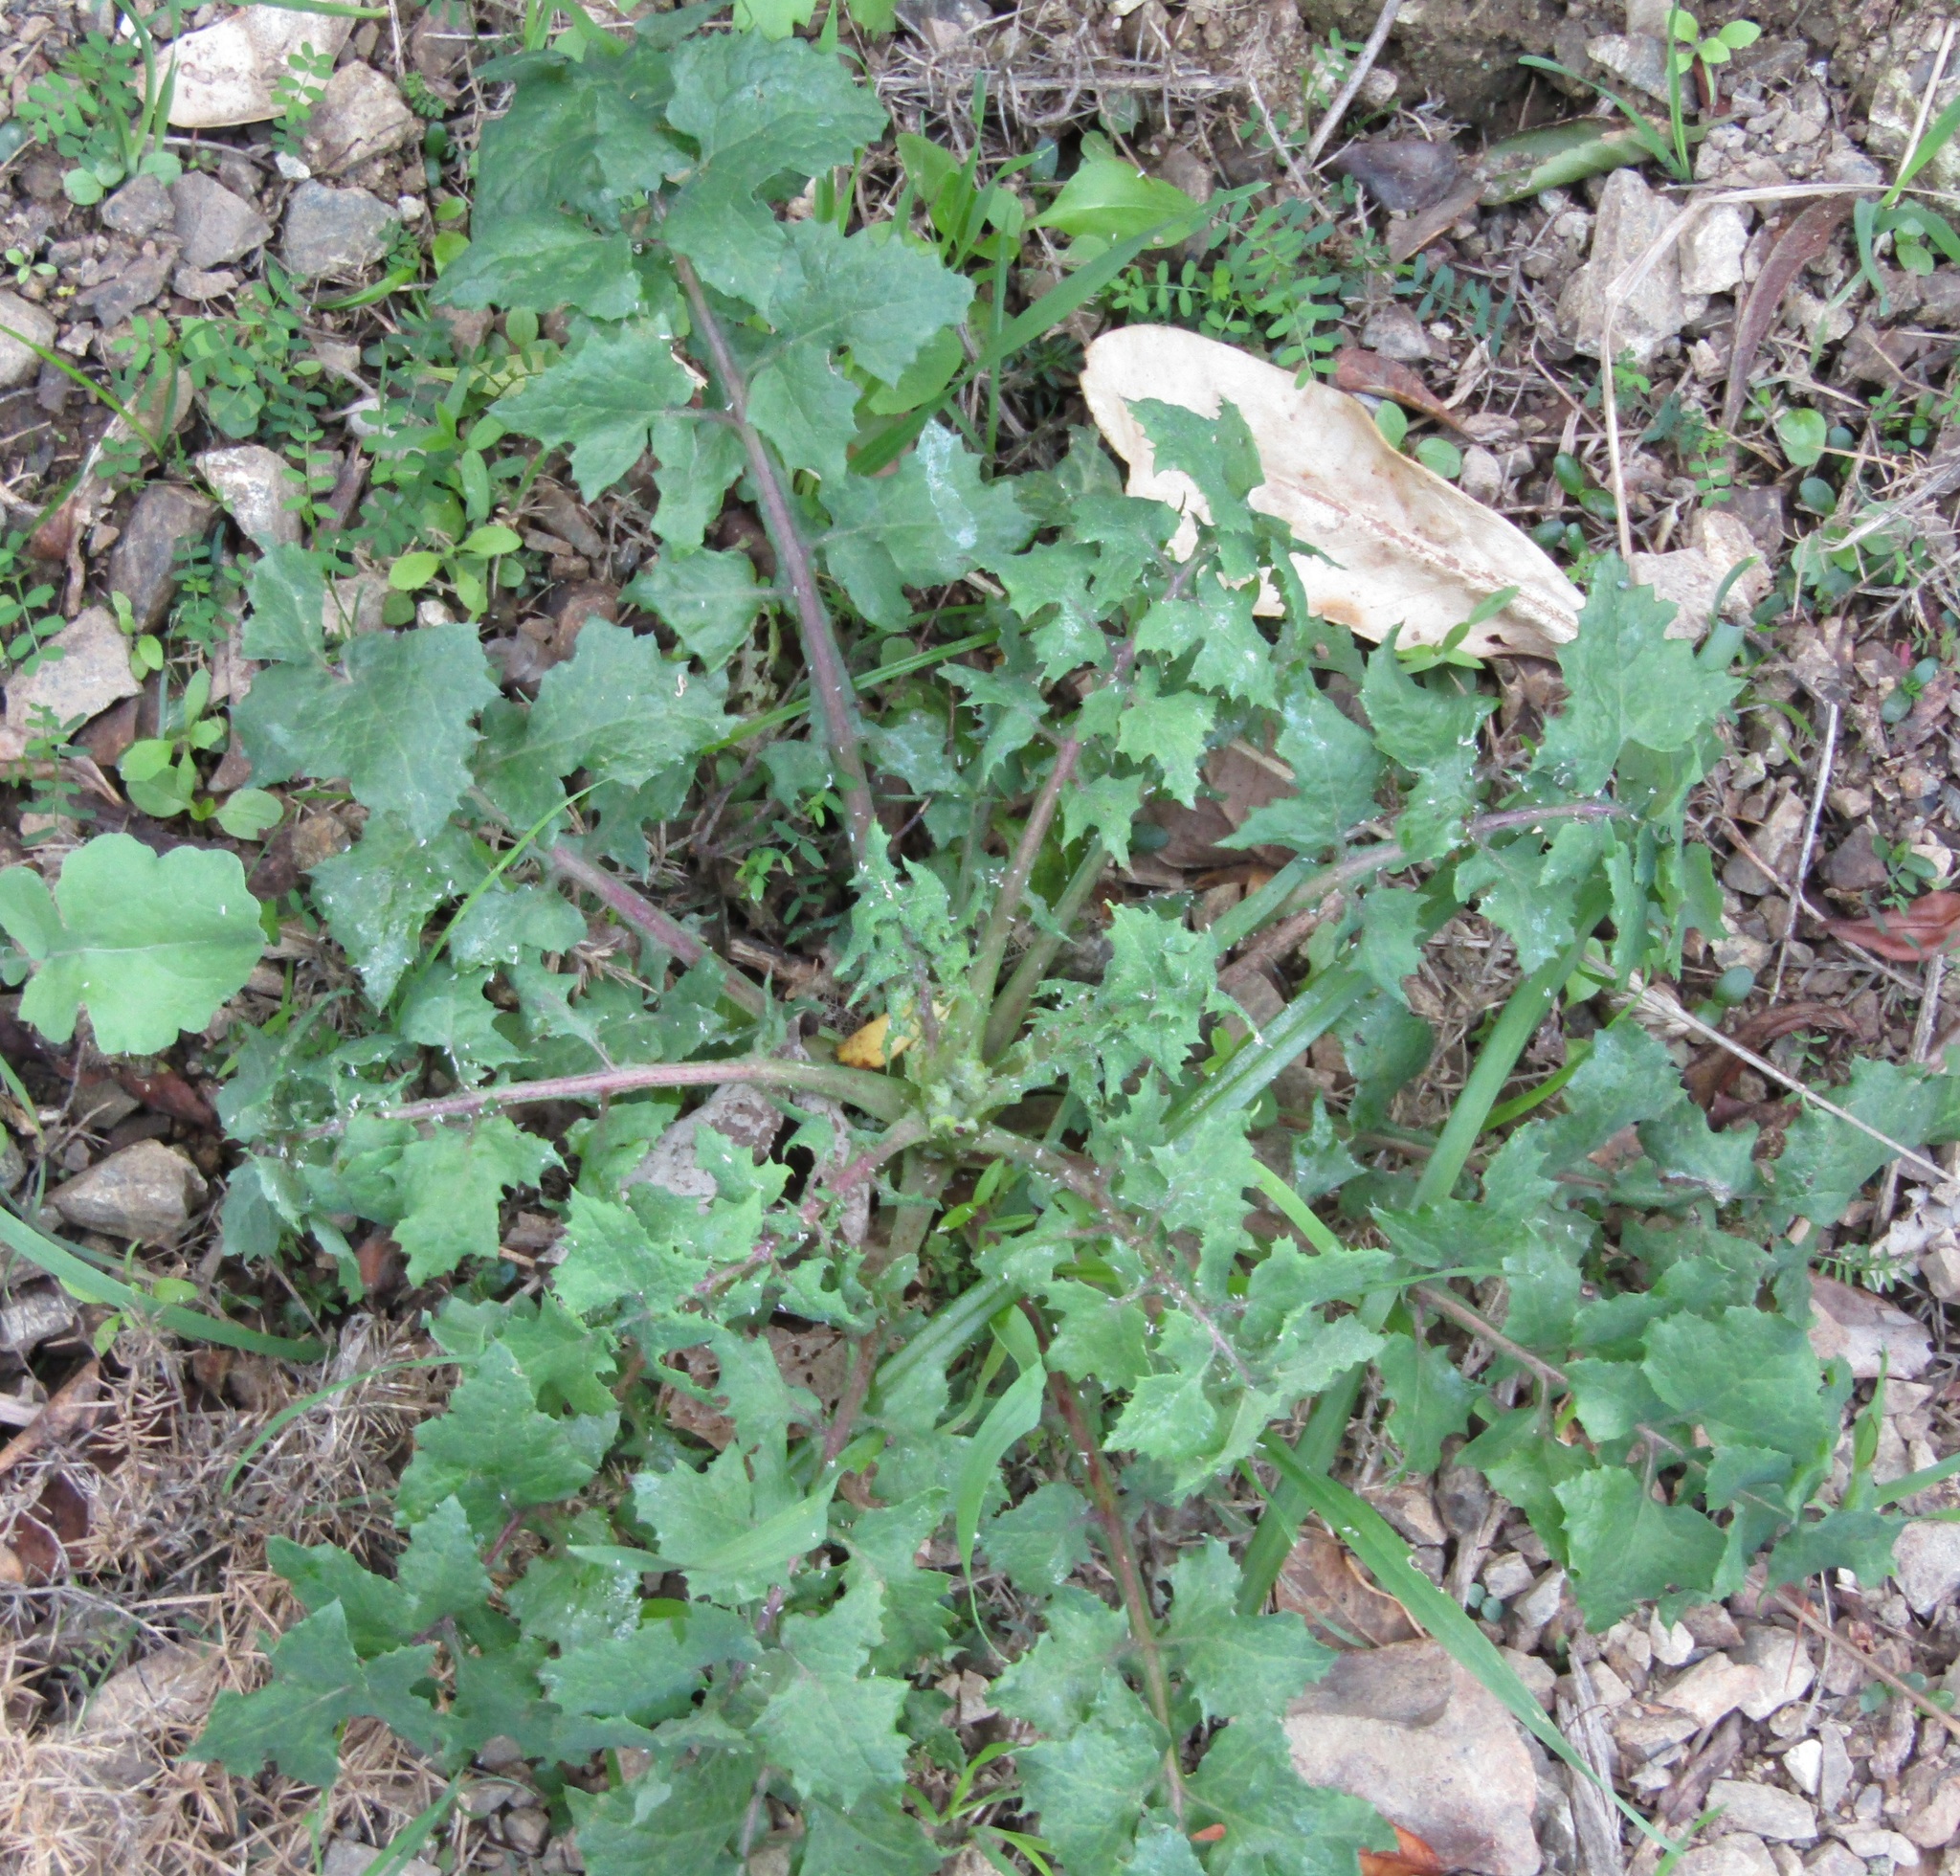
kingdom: Plantae
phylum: Tracheophyta
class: Magnoliopsida
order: Asterales
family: Asteraceae
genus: Sonchus
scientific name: Sonchus oleraceus
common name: Common sowthistle
